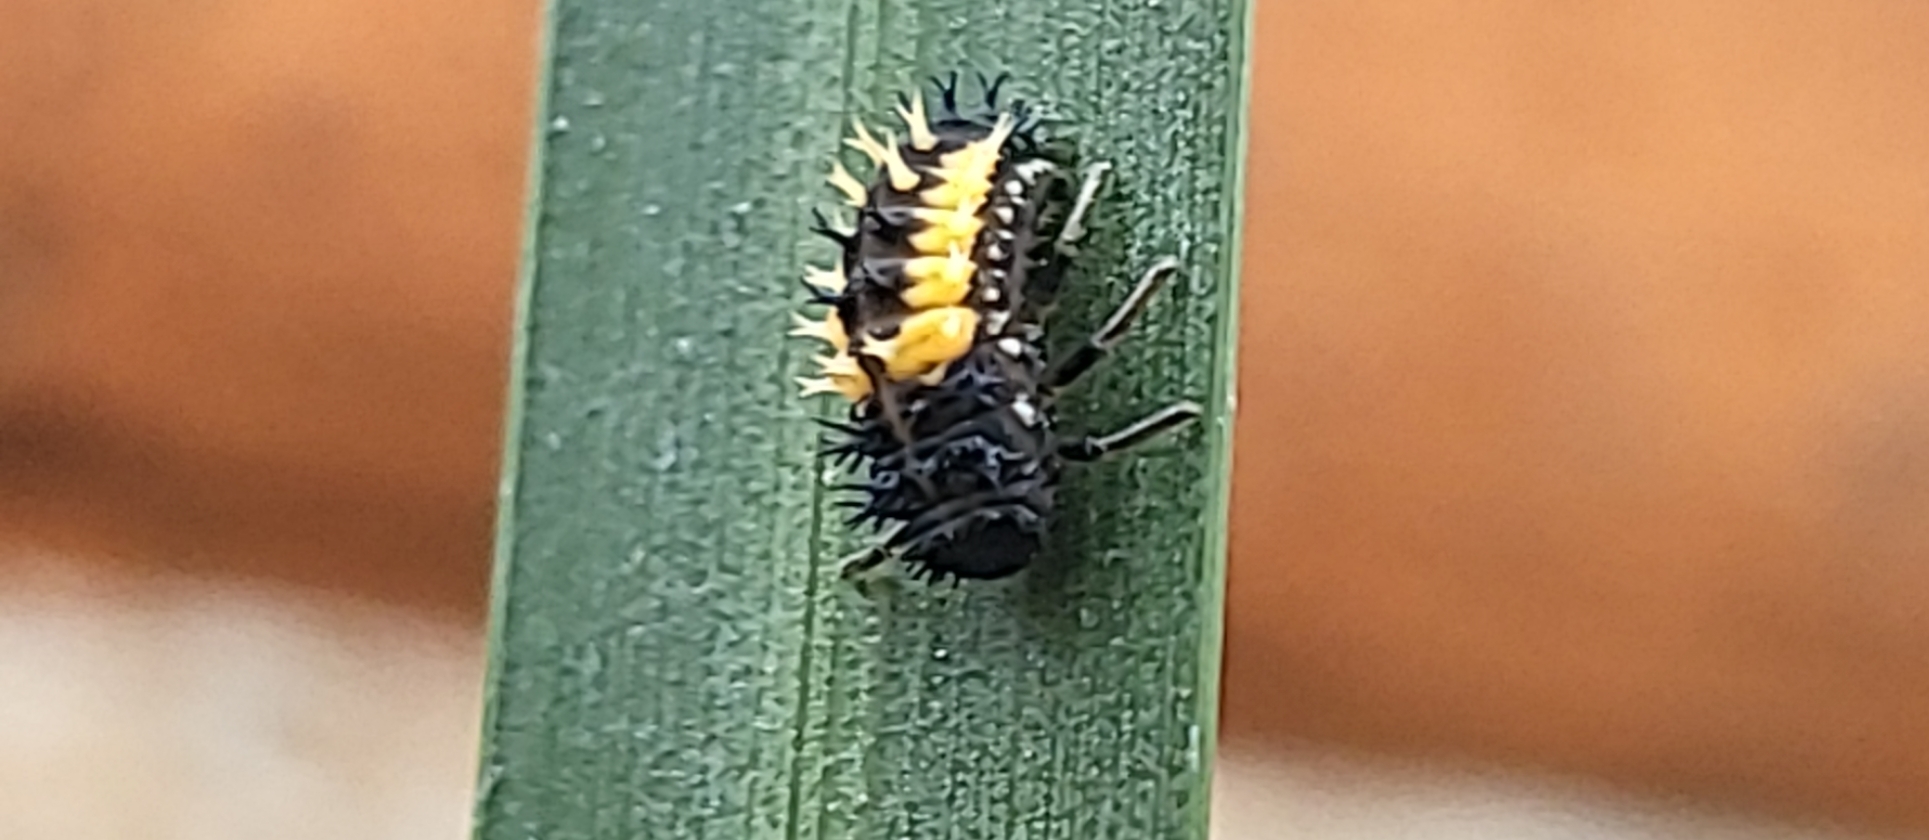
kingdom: Animalia
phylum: Arthropoda
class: Insecta
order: Coleoptera
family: Coccinellidae
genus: Harmonia
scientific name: Harmonia axyridis
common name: Harlequin ladybird
